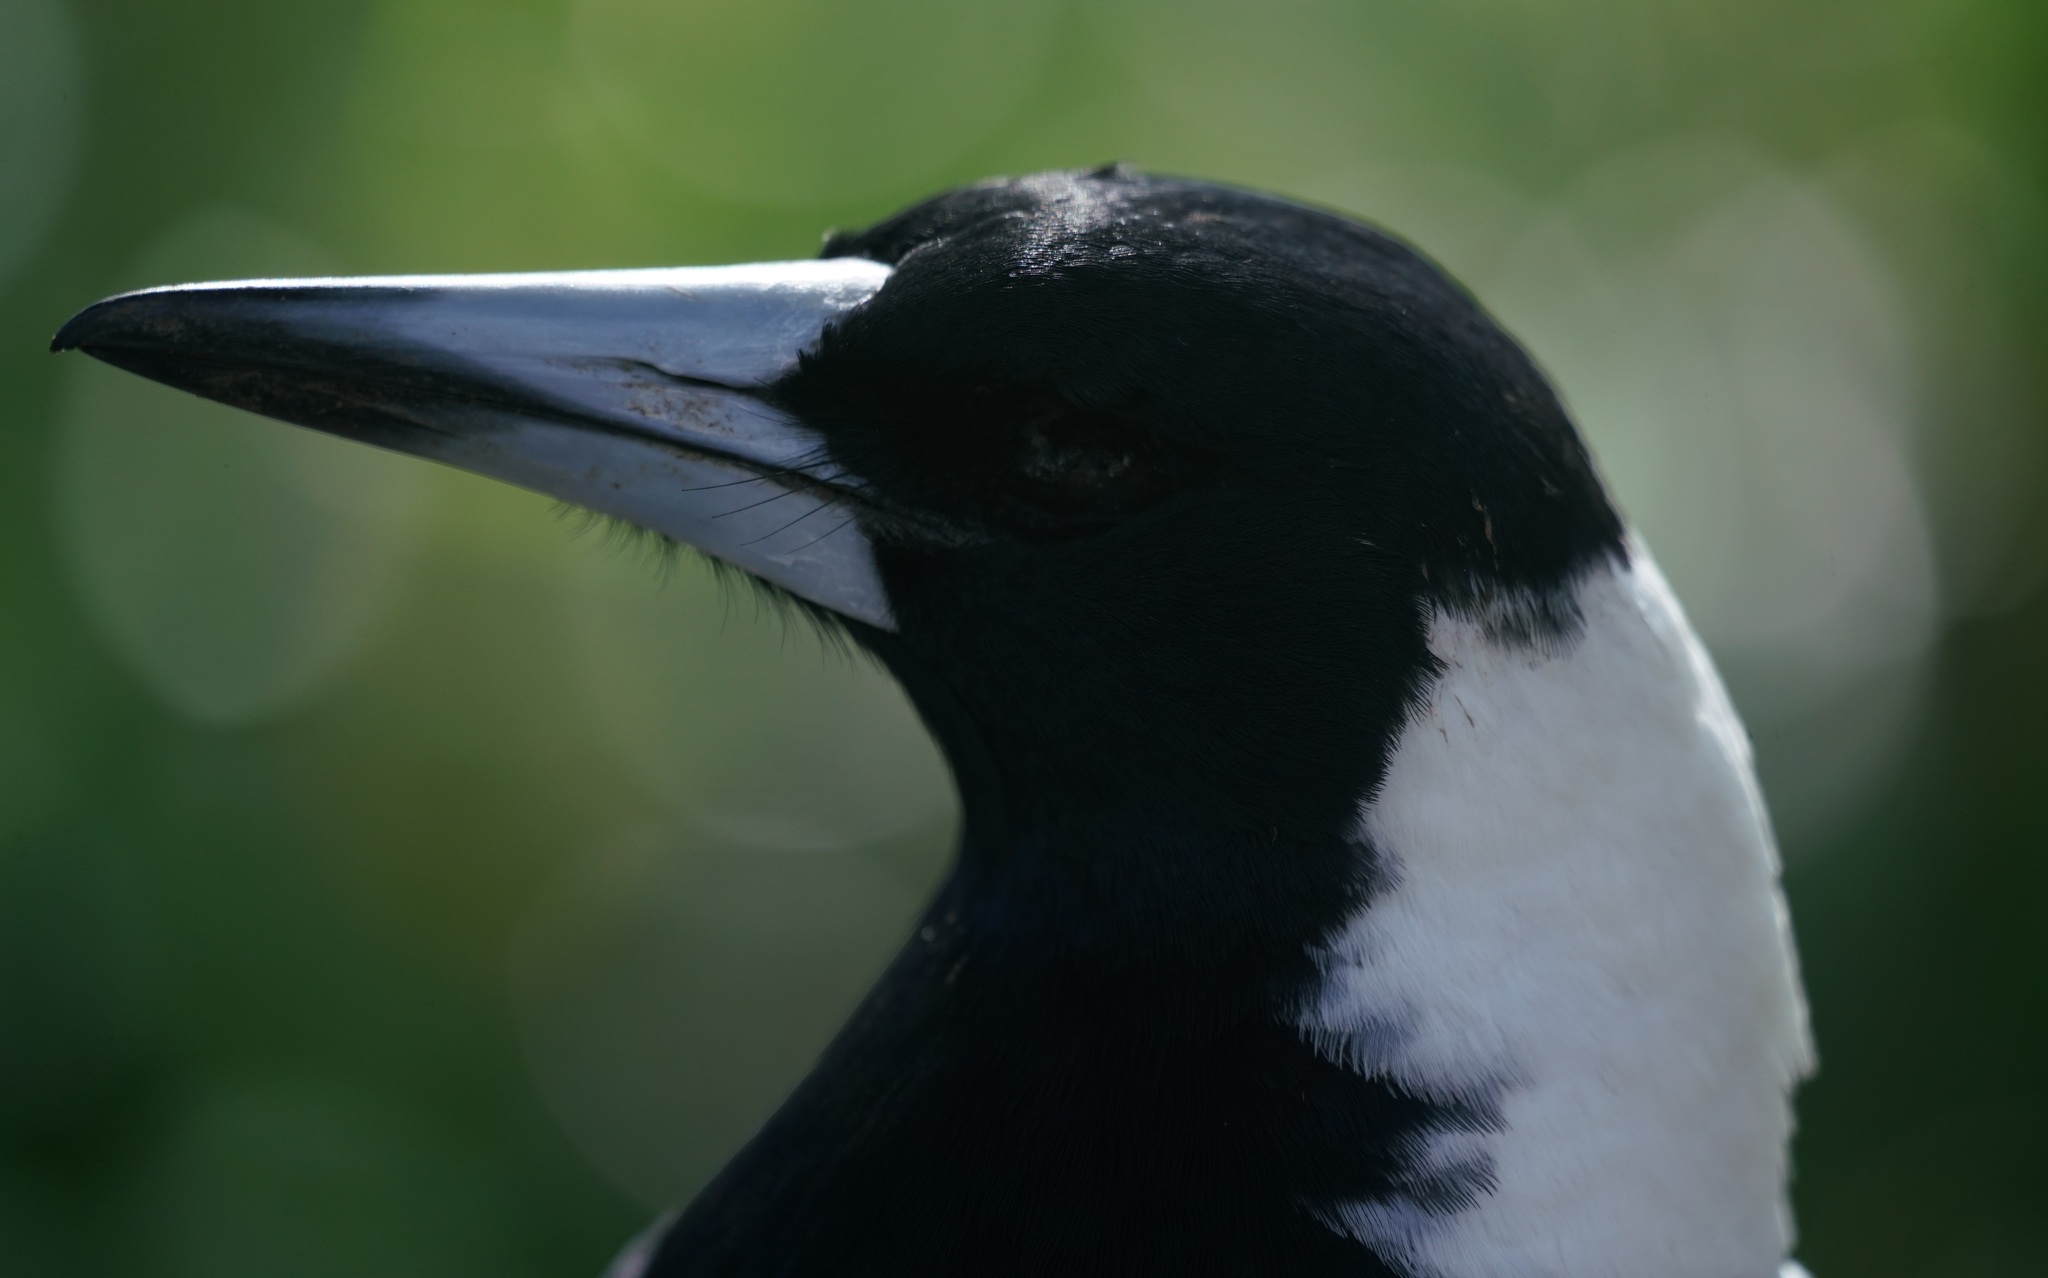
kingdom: Animalia
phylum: Chordata
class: Aves
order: Passeriformes
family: Cracticidae
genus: Gymnorhina
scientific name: Gymnorhina tibicen
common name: Australian magpie
